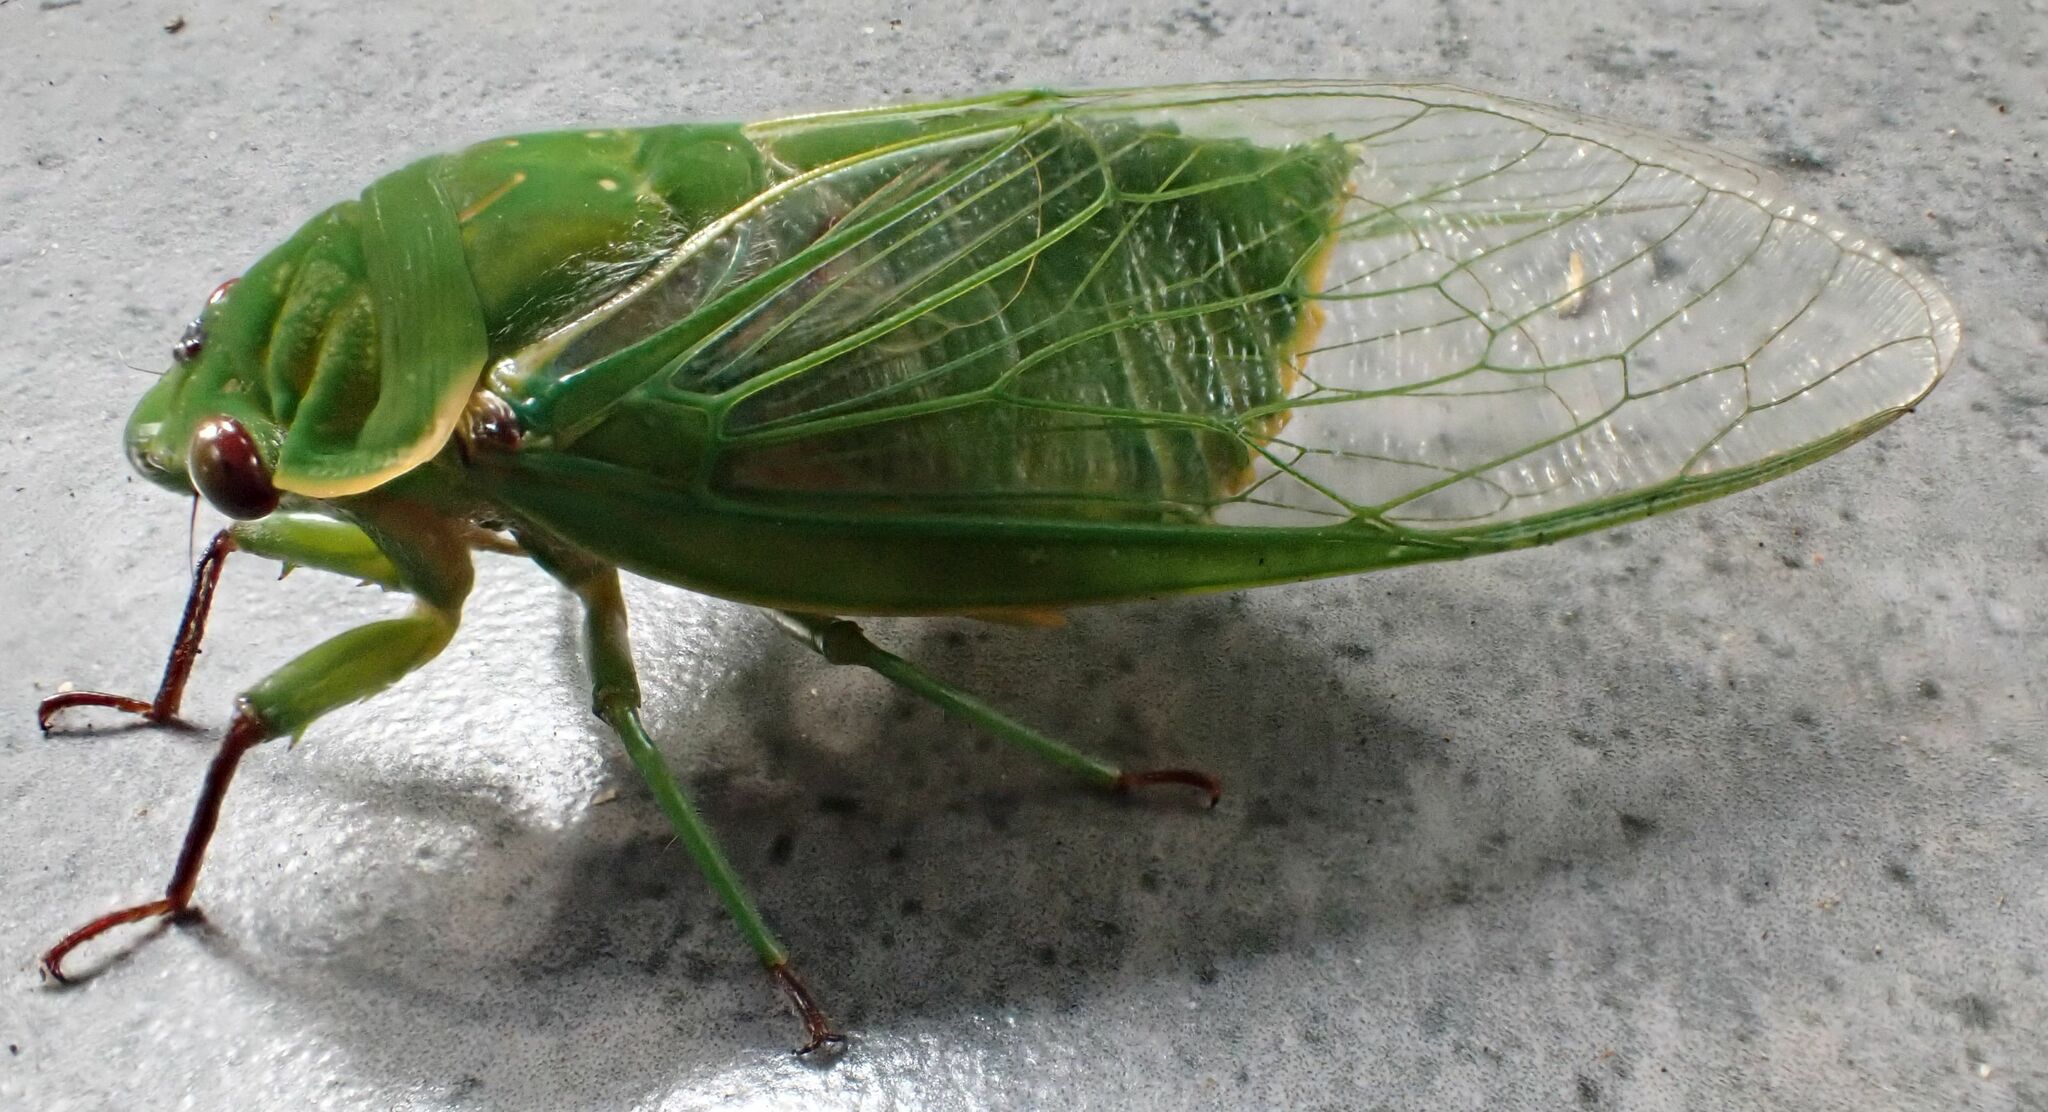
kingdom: Animalia
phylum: Arthropoda
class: Insecta
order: Hemiptera
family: Cicadidae
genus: Cyclochila
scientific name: Cyclochila virens
